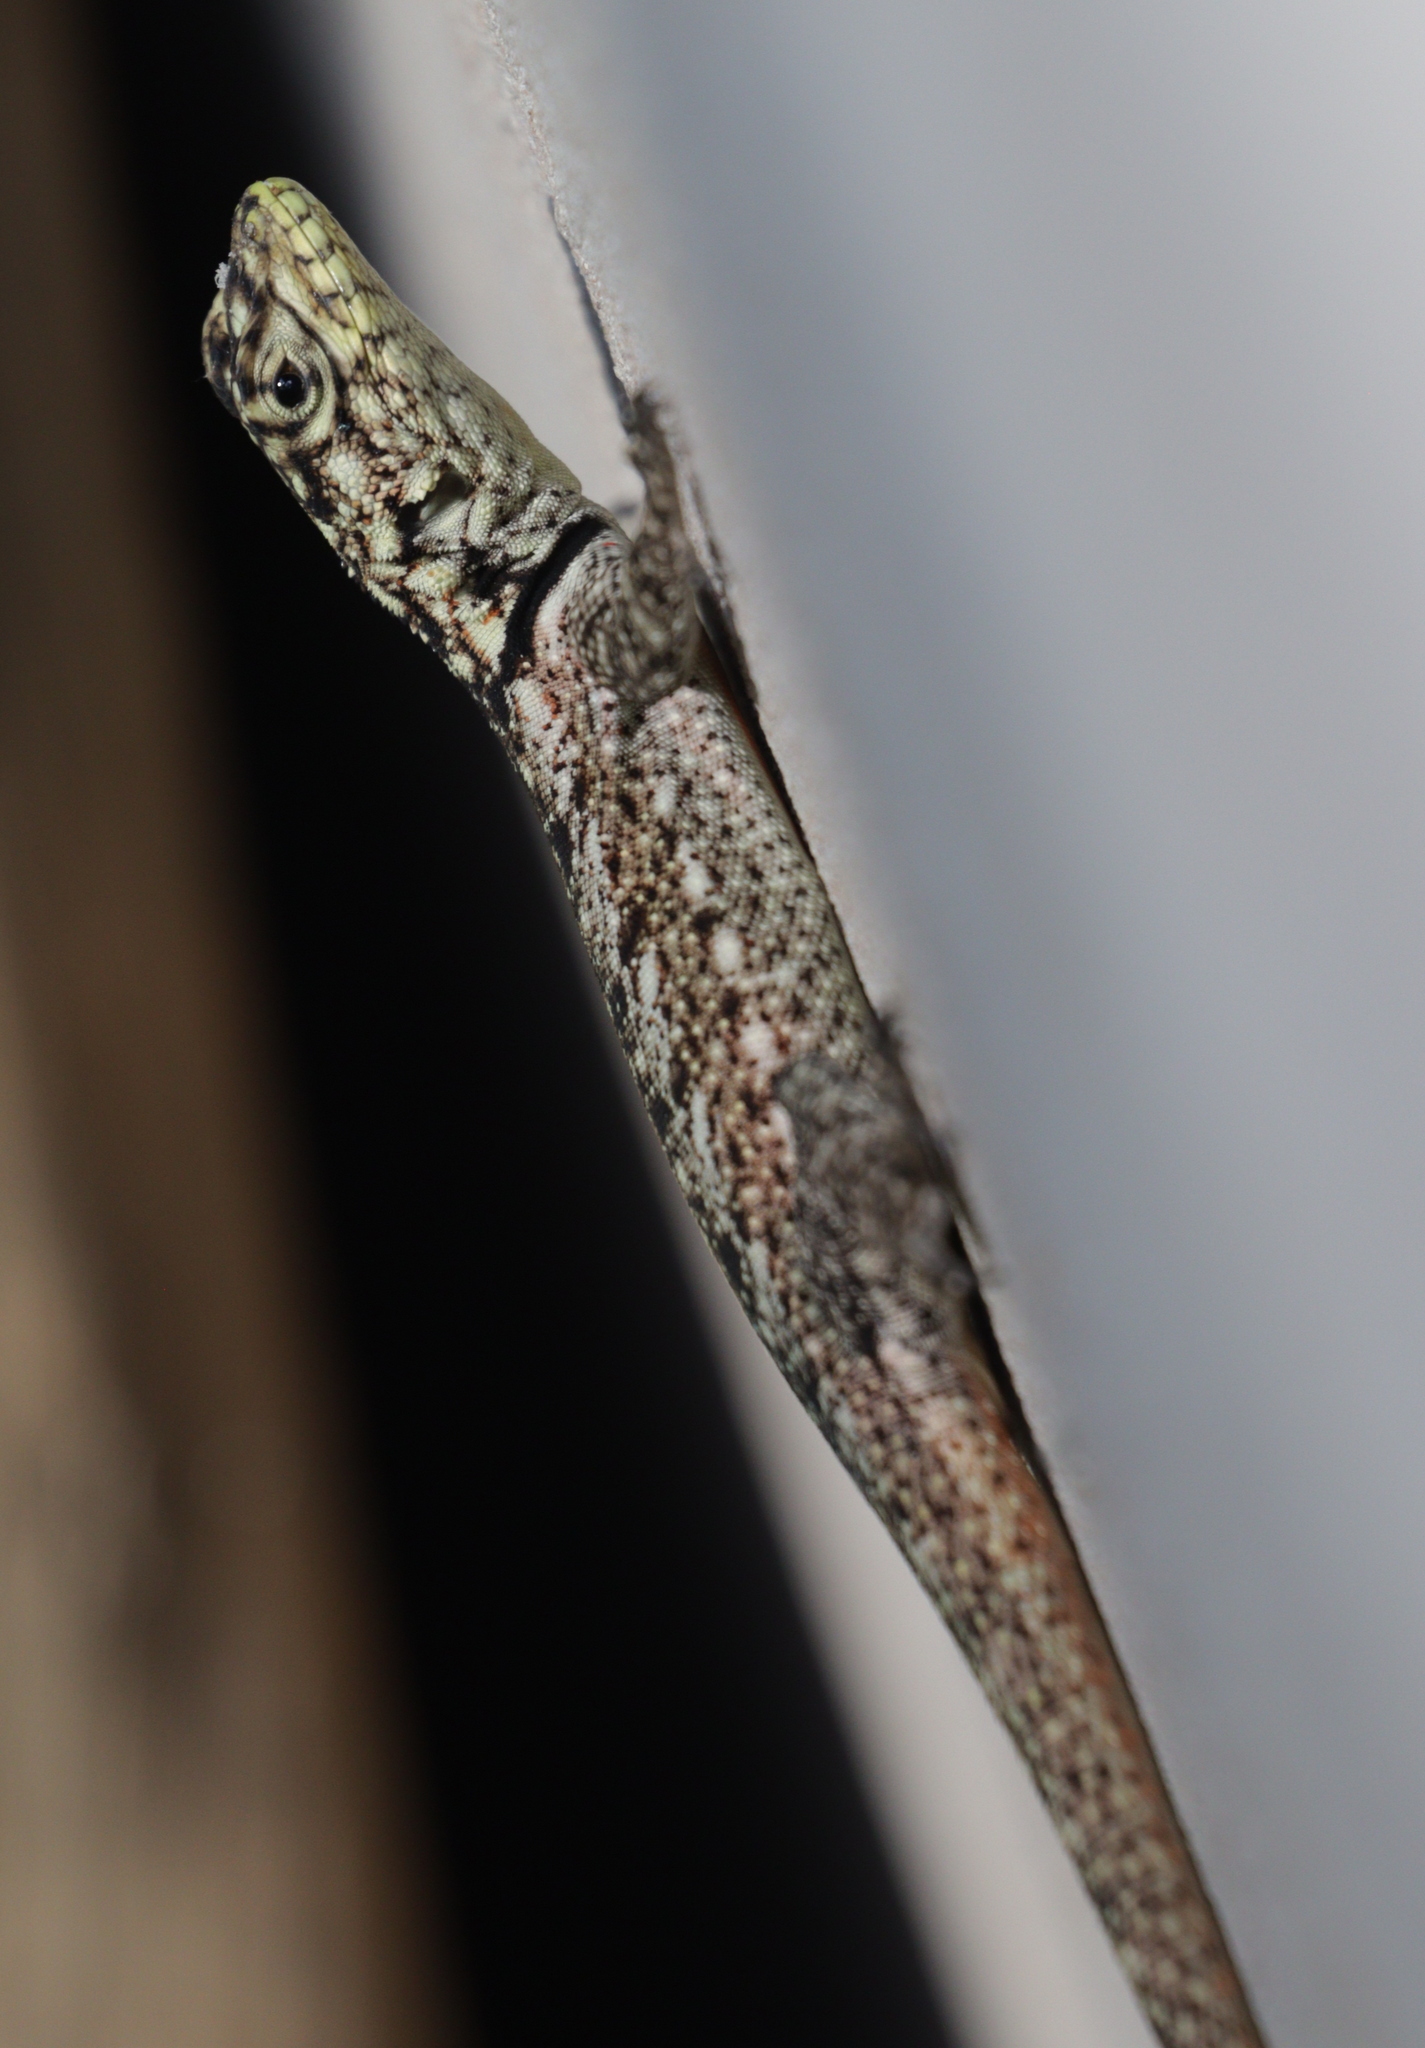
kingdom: Animalia
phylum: Chordata
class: Squamata
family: Tropiduridae
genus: Tropidurus
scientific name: Tropidurus lagunablanca
